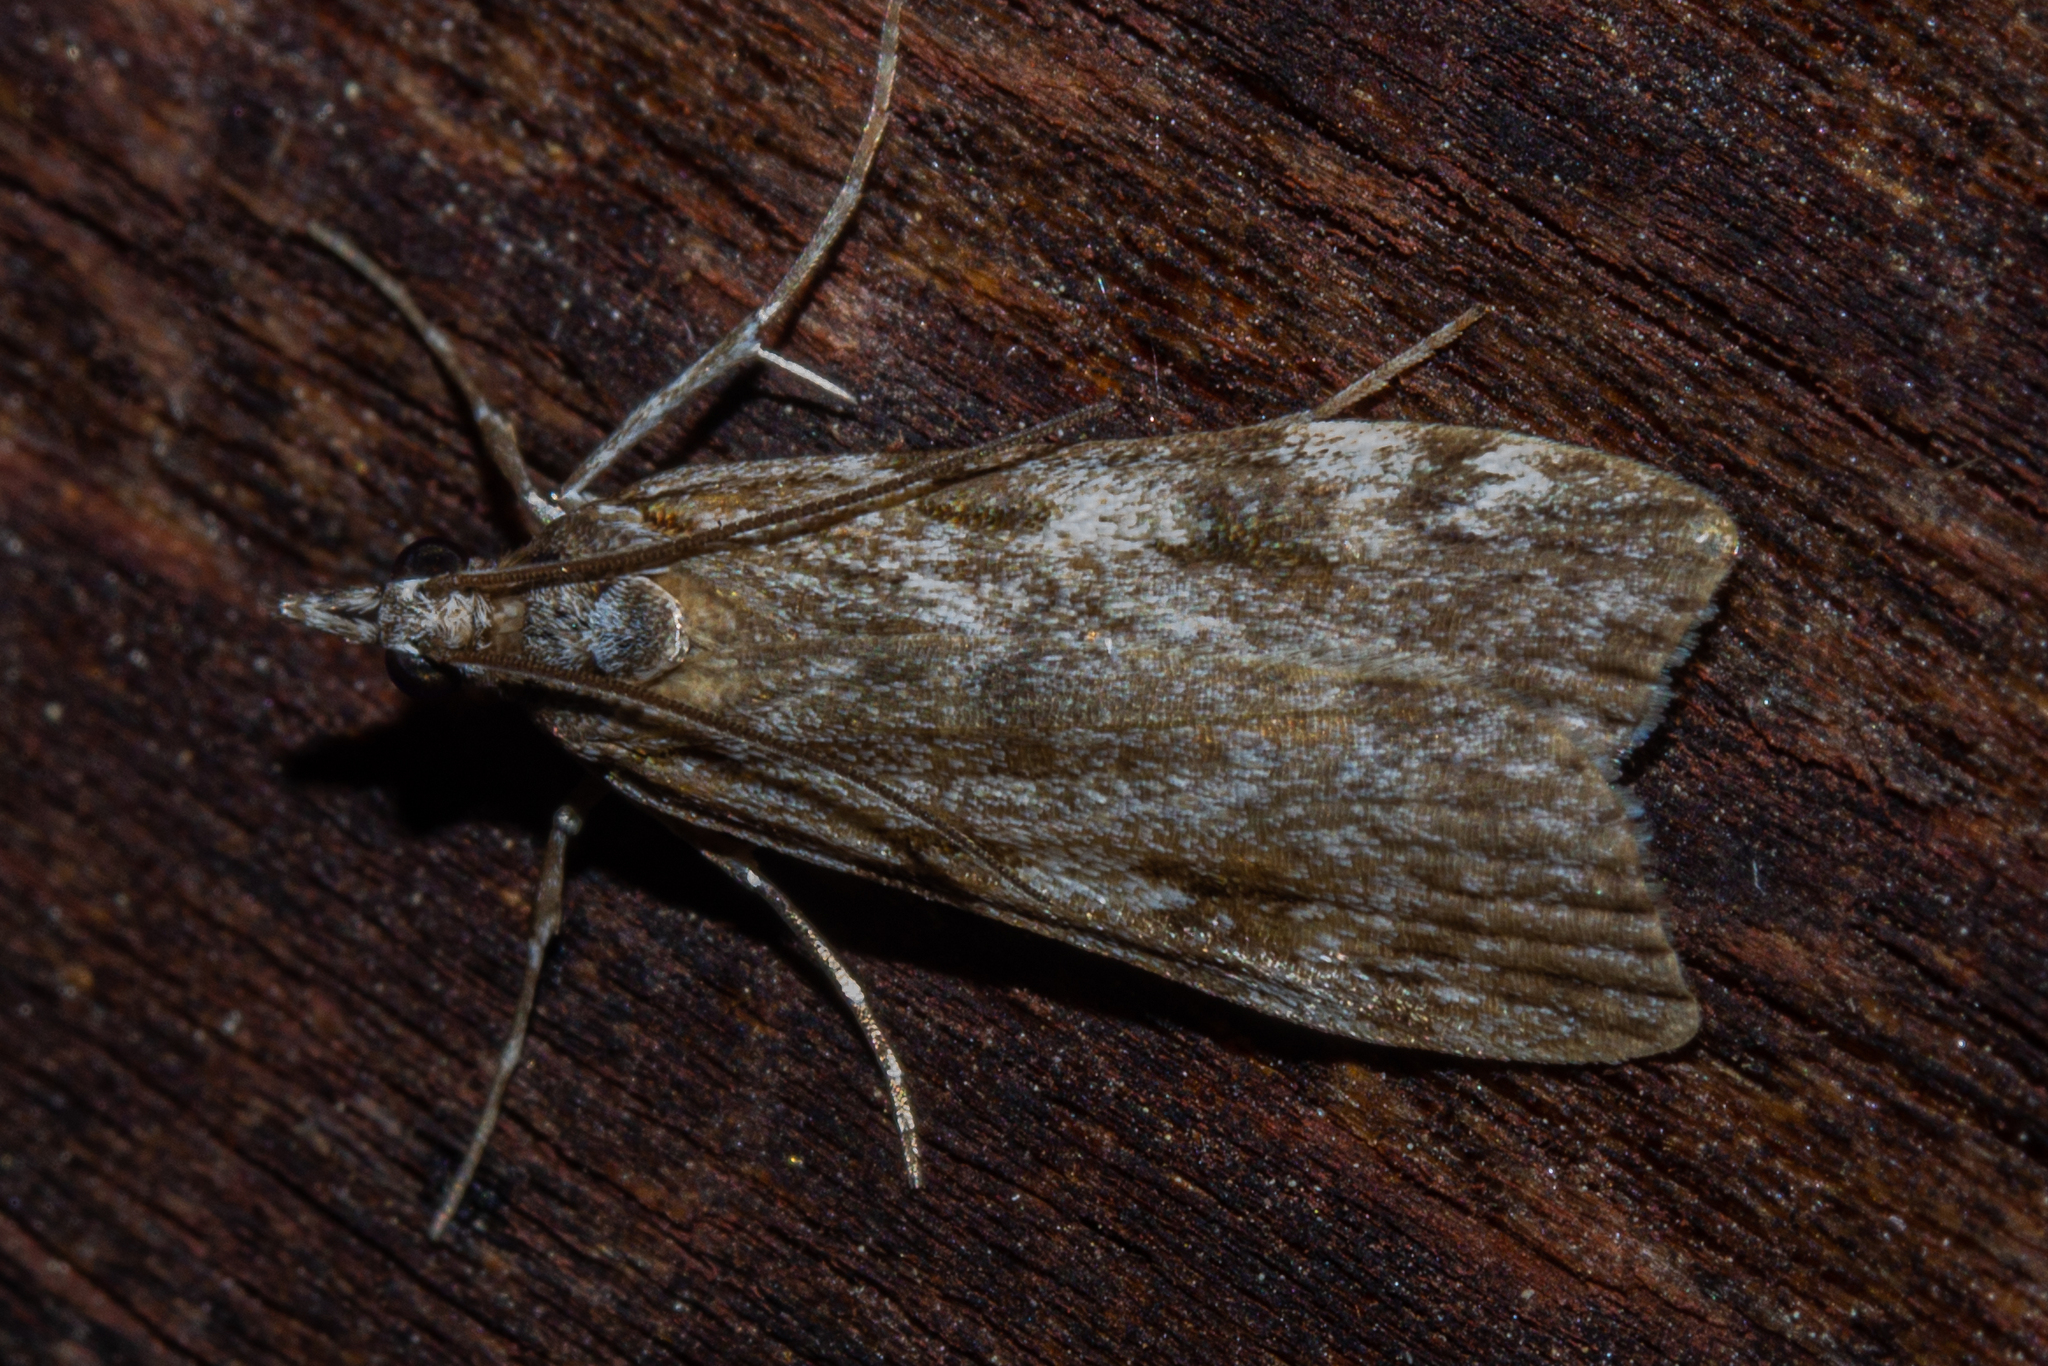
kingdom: Animalia
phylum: Arthropoda
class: Insecta
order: Lepidoptera
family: Crambidae
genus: Scoparia
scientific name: Scoparia halopis
